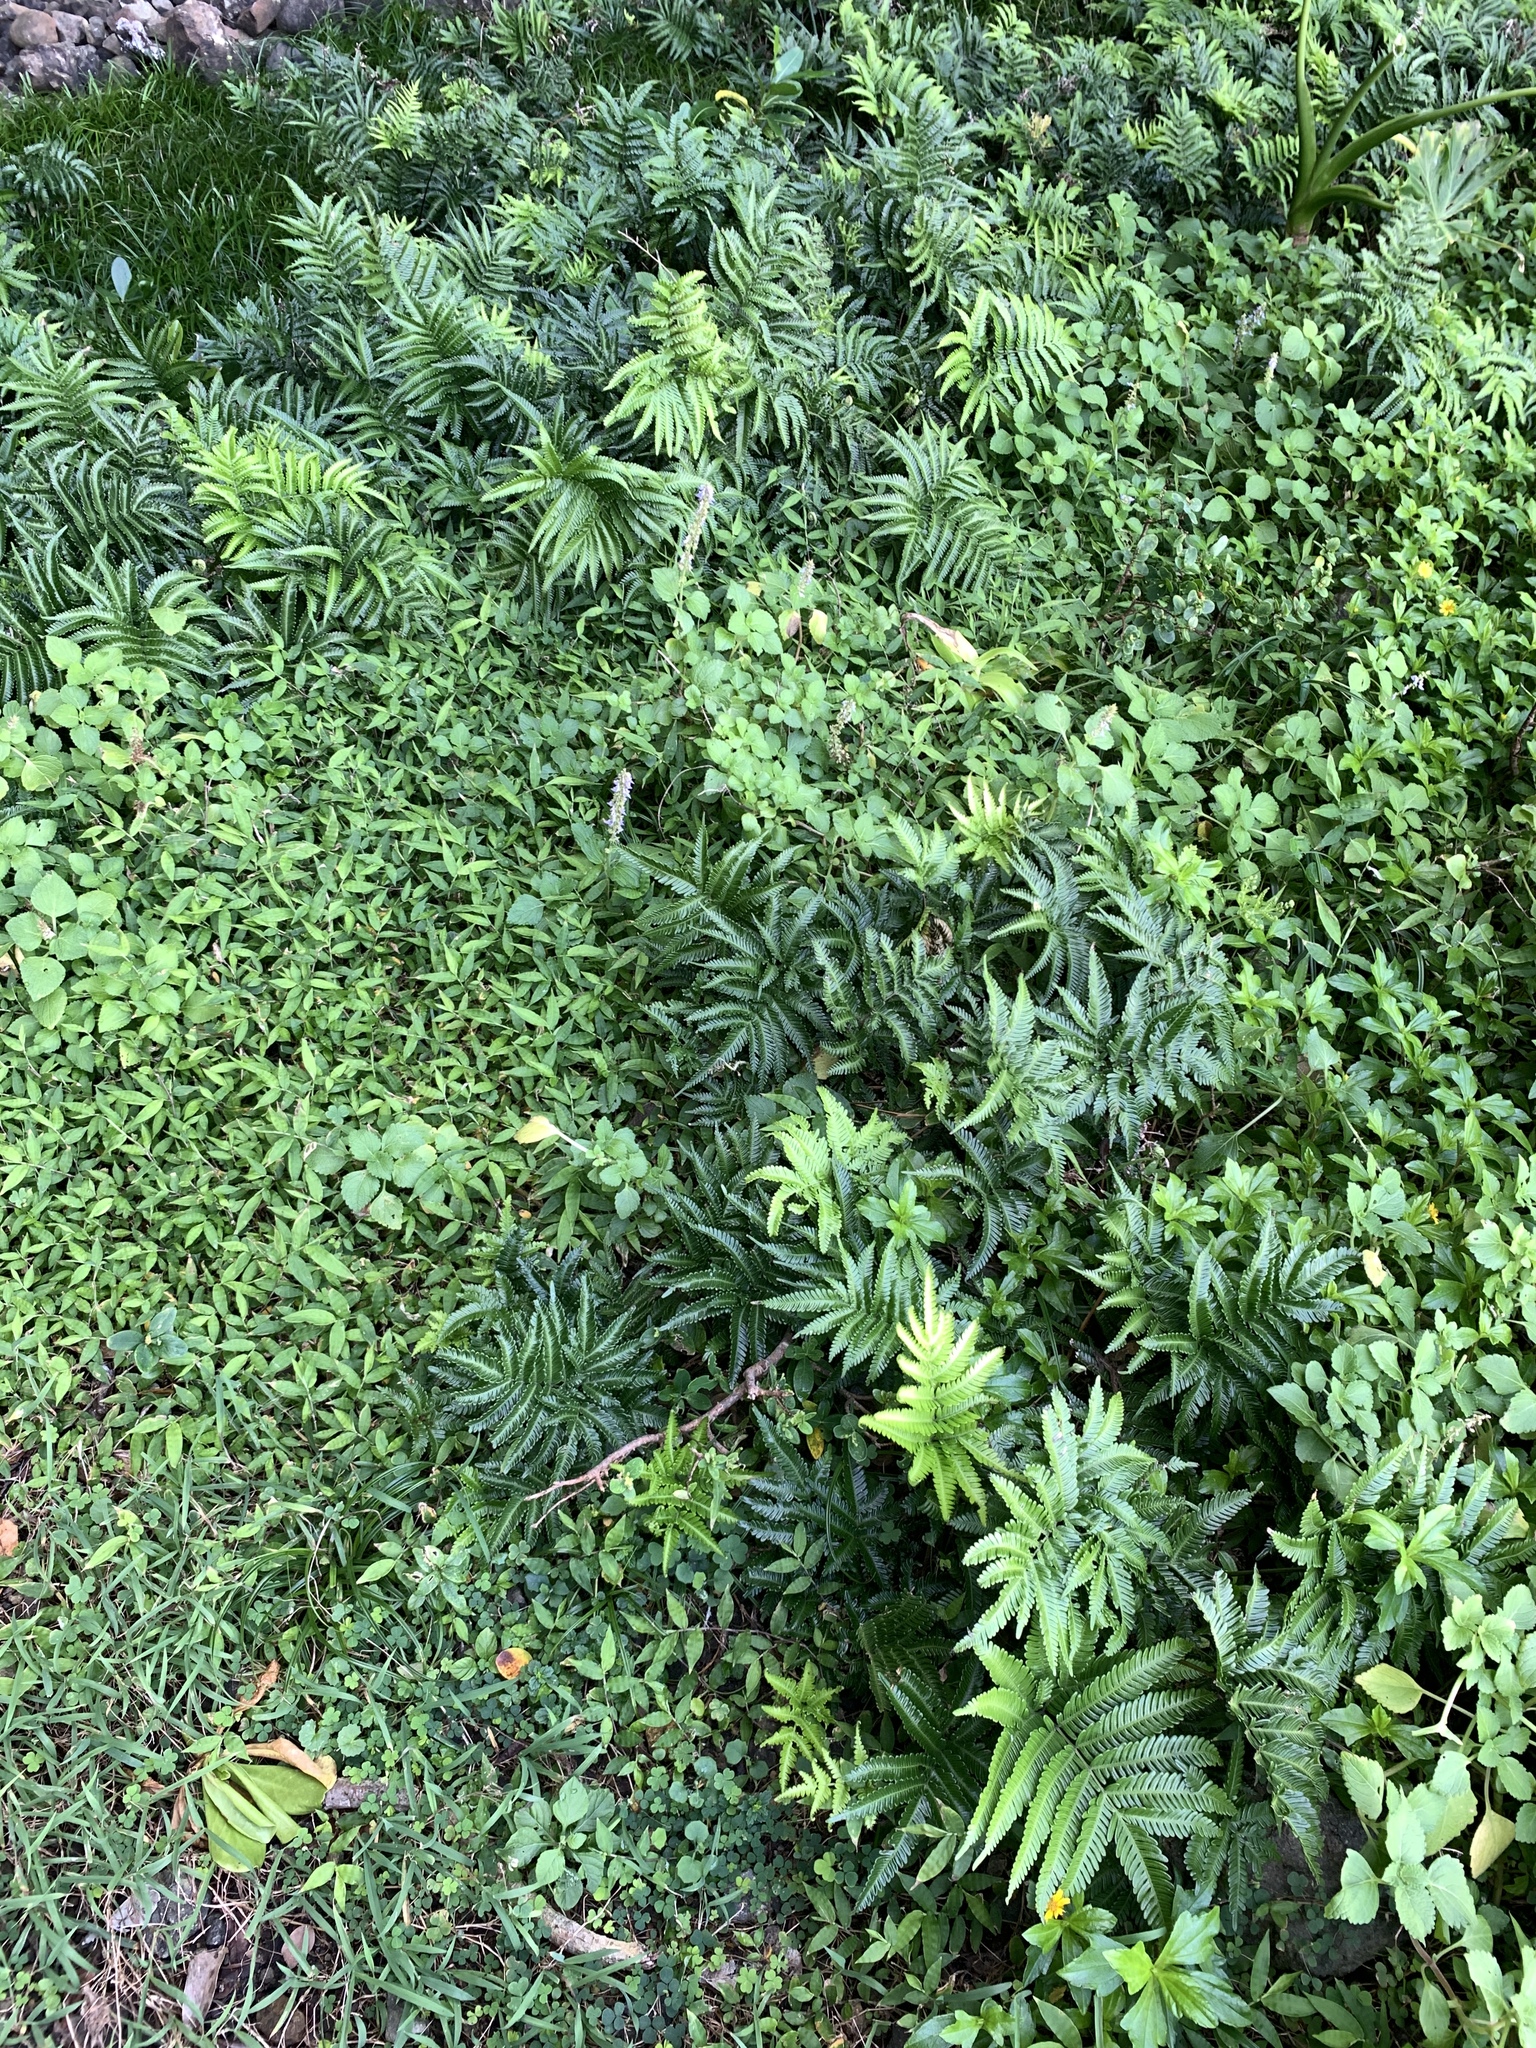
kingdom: Plantae
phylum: Tracheophyta
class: Polypodiopsida
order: Polypodiales
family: Pteridaceae
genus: Pteris
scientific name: Pteris minor
